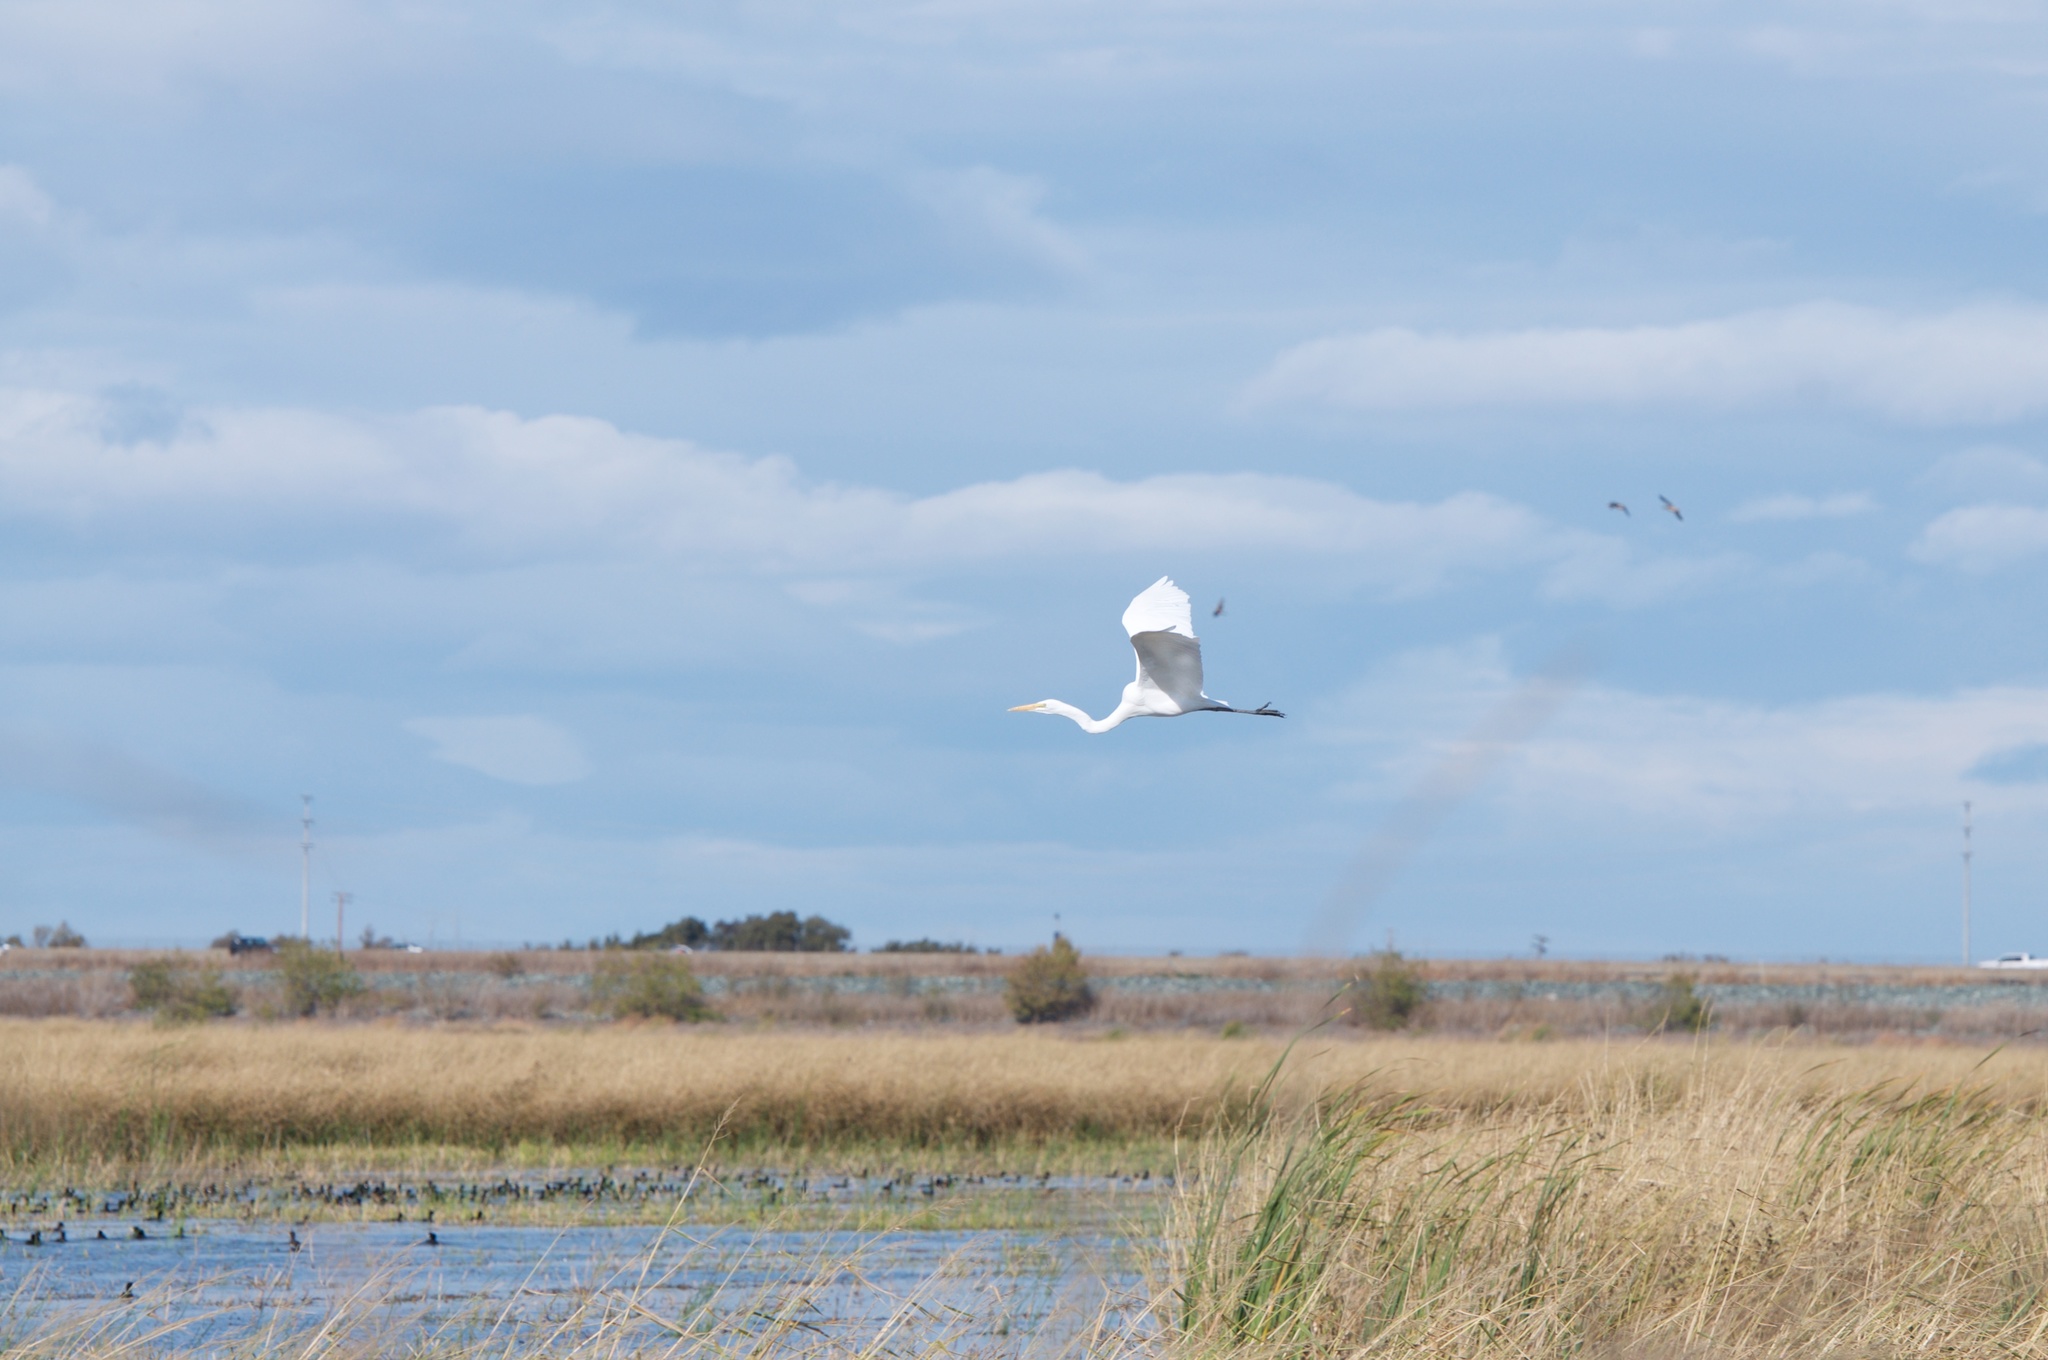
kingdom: Animalia
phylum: Chordata
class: Aves
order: Pelecaniformes
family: Ardeidae
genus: Ardea
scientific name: Ardea alba
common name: Great egret
